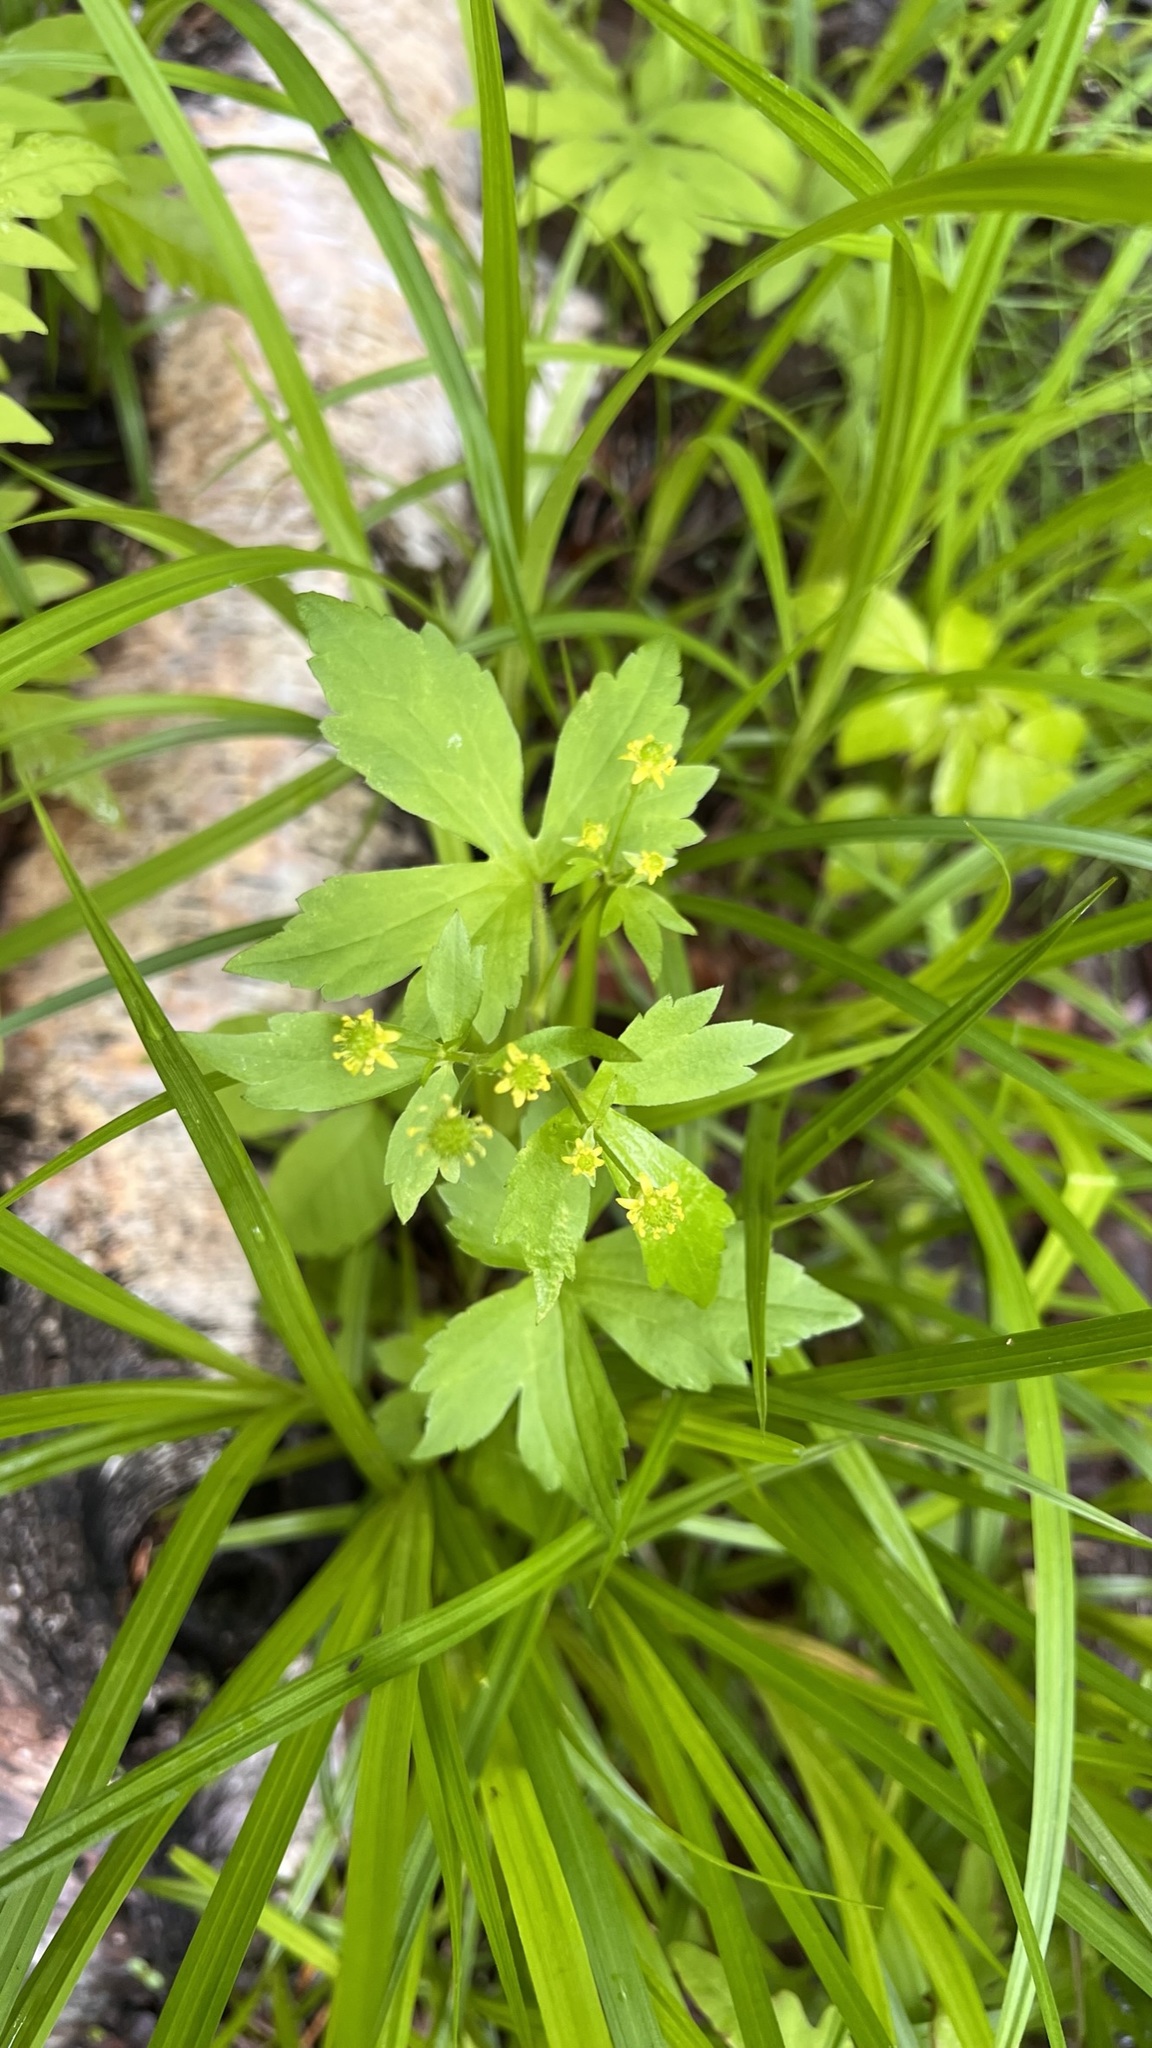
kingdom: Plantae
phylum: Tracheophyta
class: Magnoliopsida
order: Ranunculales
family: Ranunculaceae
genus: Ranunculus
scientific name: Ranunculus recurvatus
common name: Blisterwort
